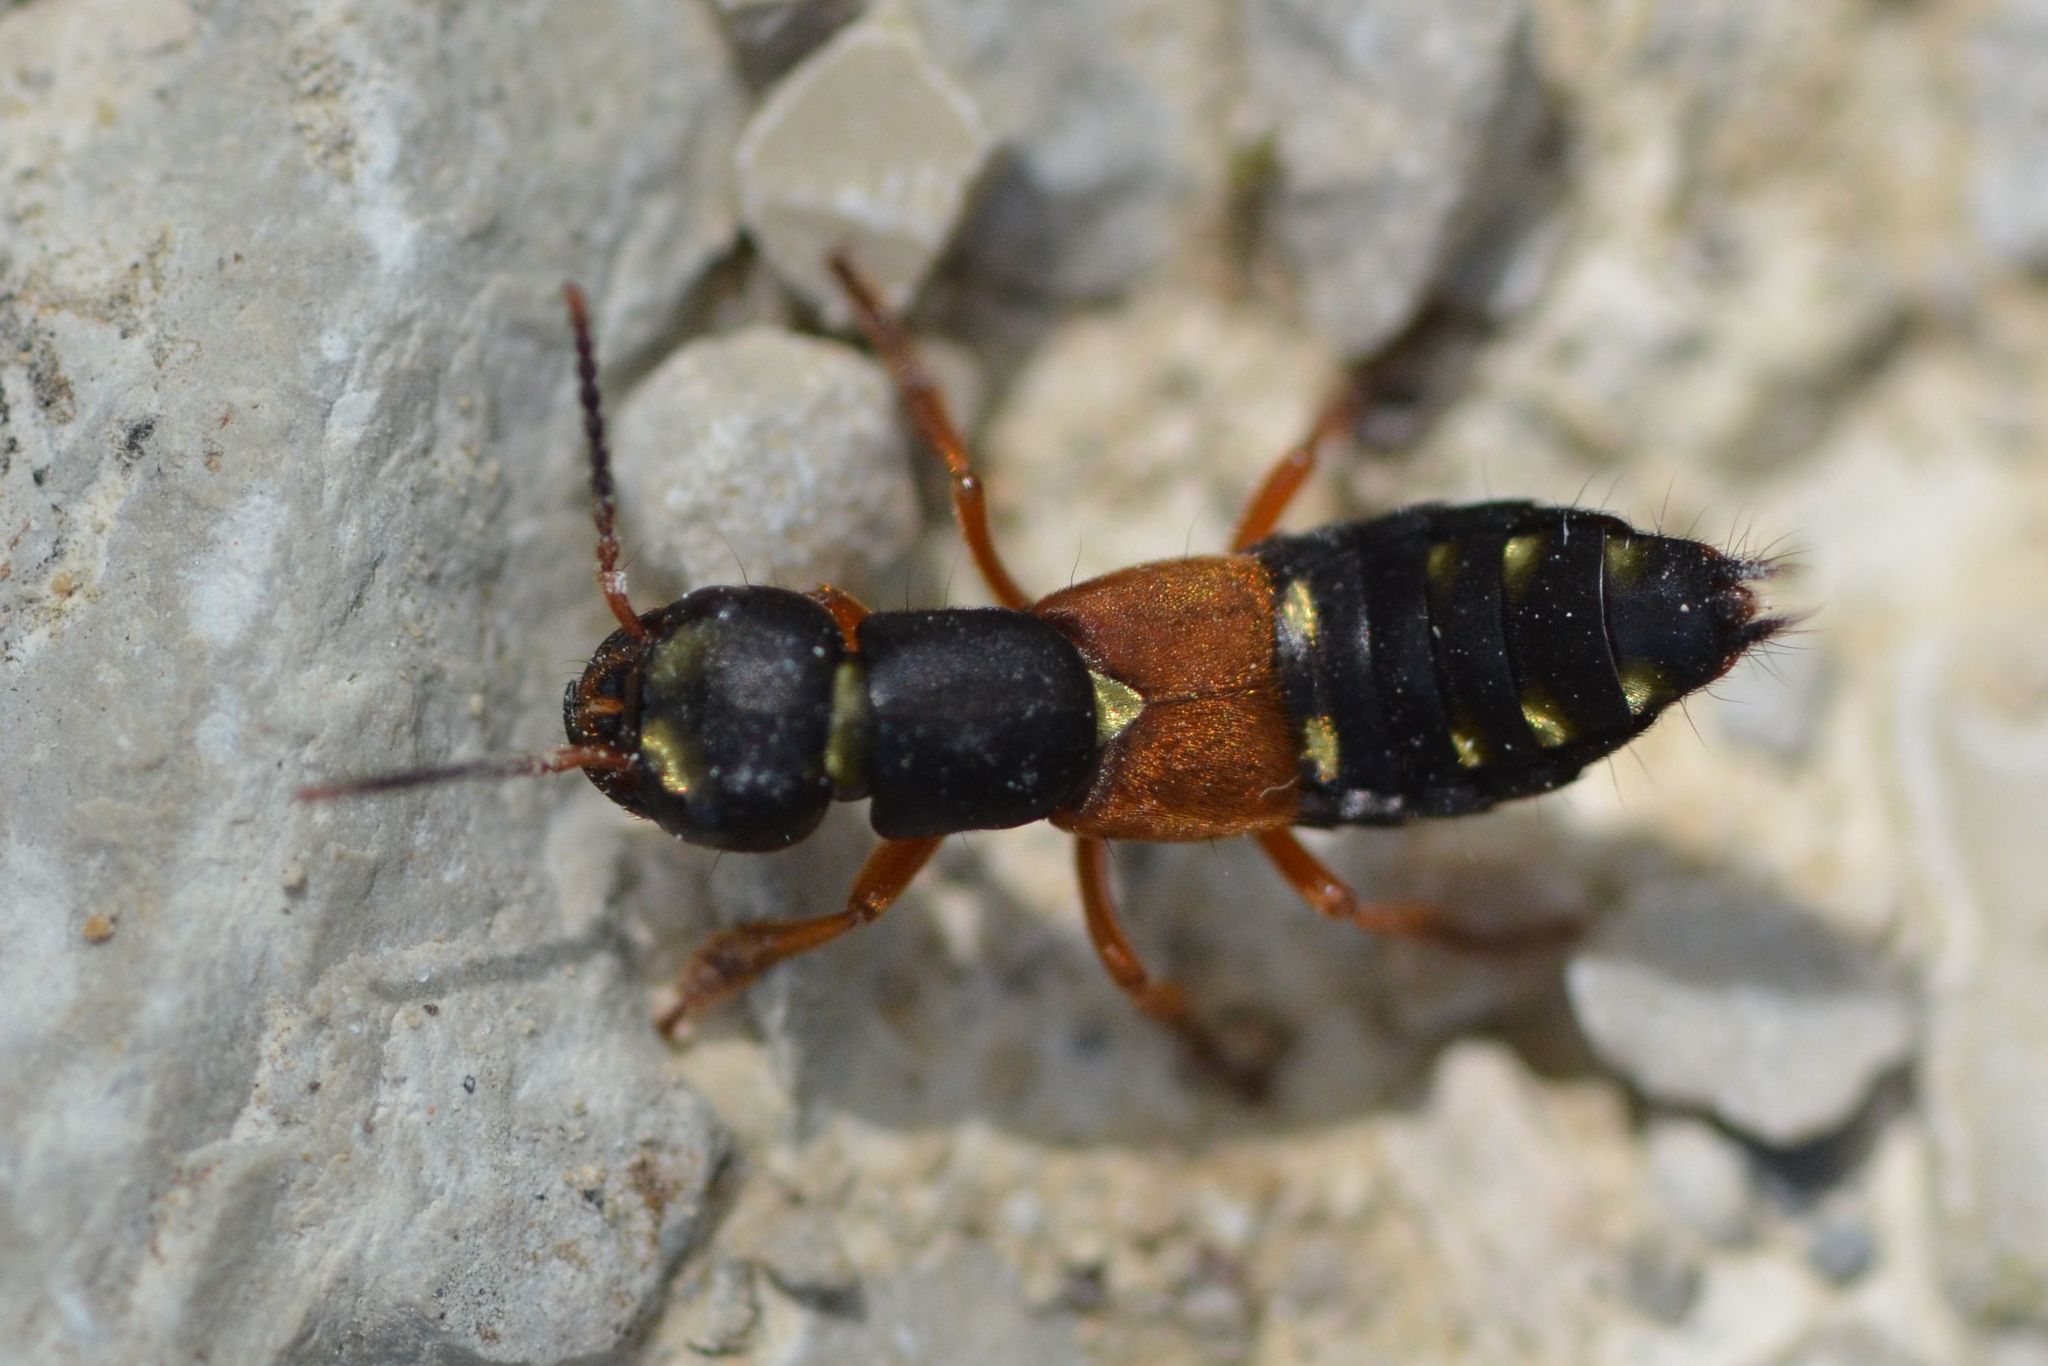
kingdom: Animalia
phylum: Arthropoda
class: Insecta
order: Coleoptera
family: Staphylinidae
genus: Staphylinus
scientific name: Staphylinus erythropterus
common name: Staph beetle
